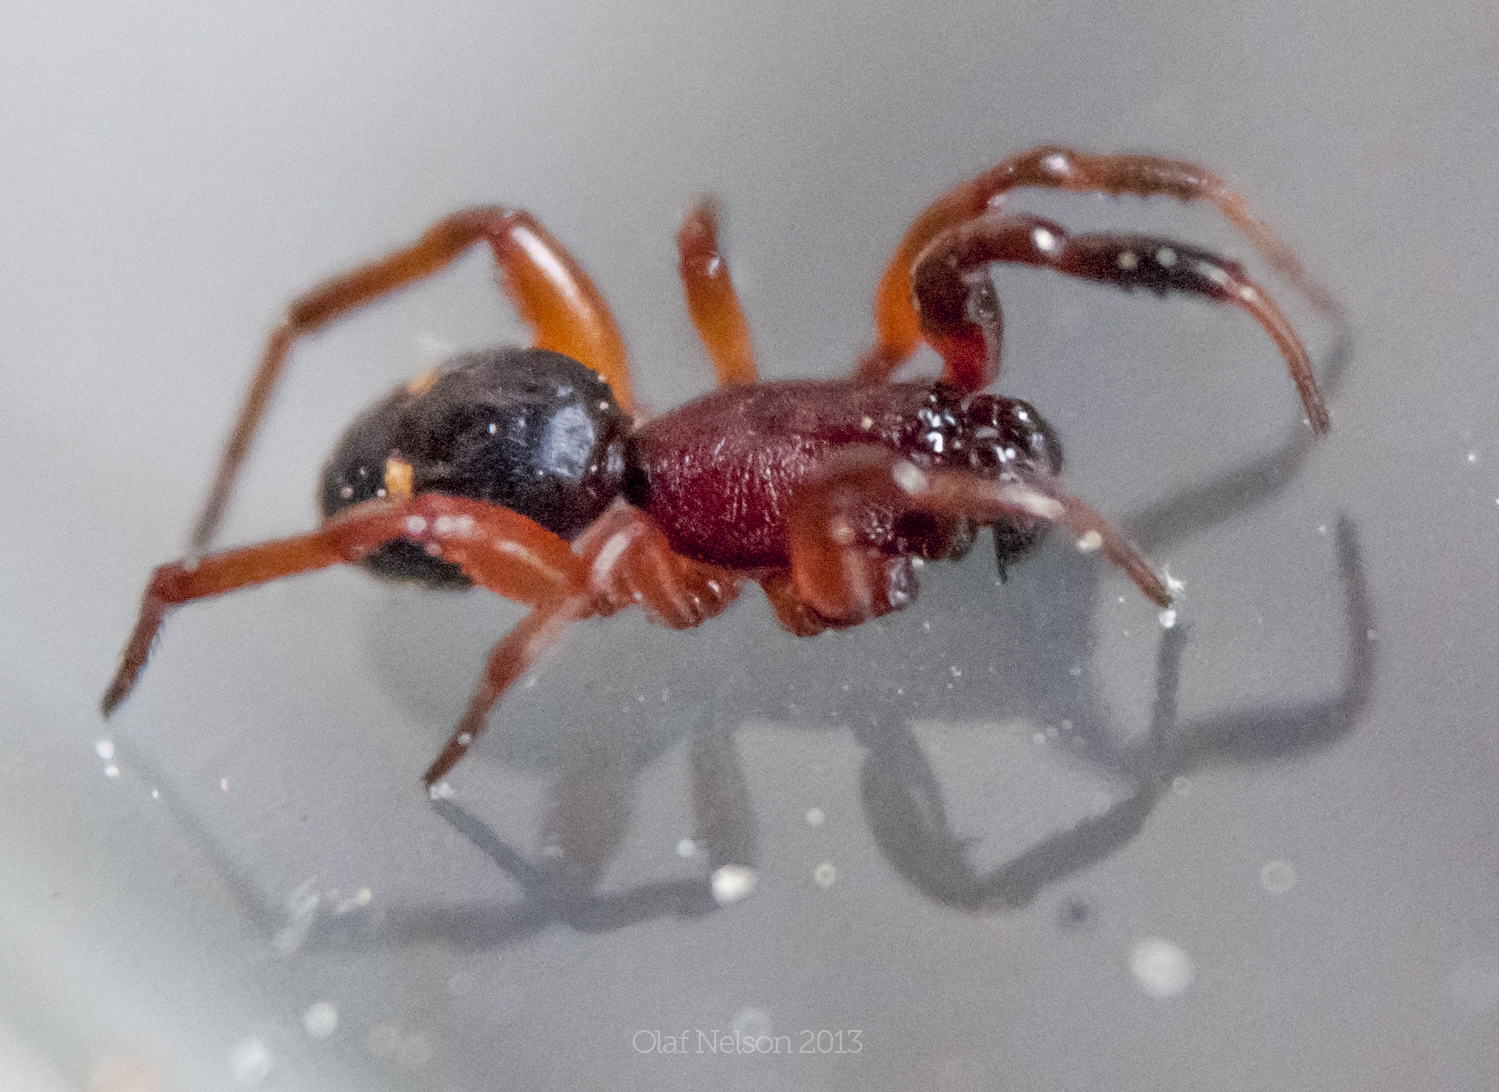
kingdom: Animalia
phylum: Arthropoda
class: Arachnida
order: Araneae
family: Theridiidae
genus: Asagena
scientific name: Asagena americana
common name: Two-spotted cobweb spider
